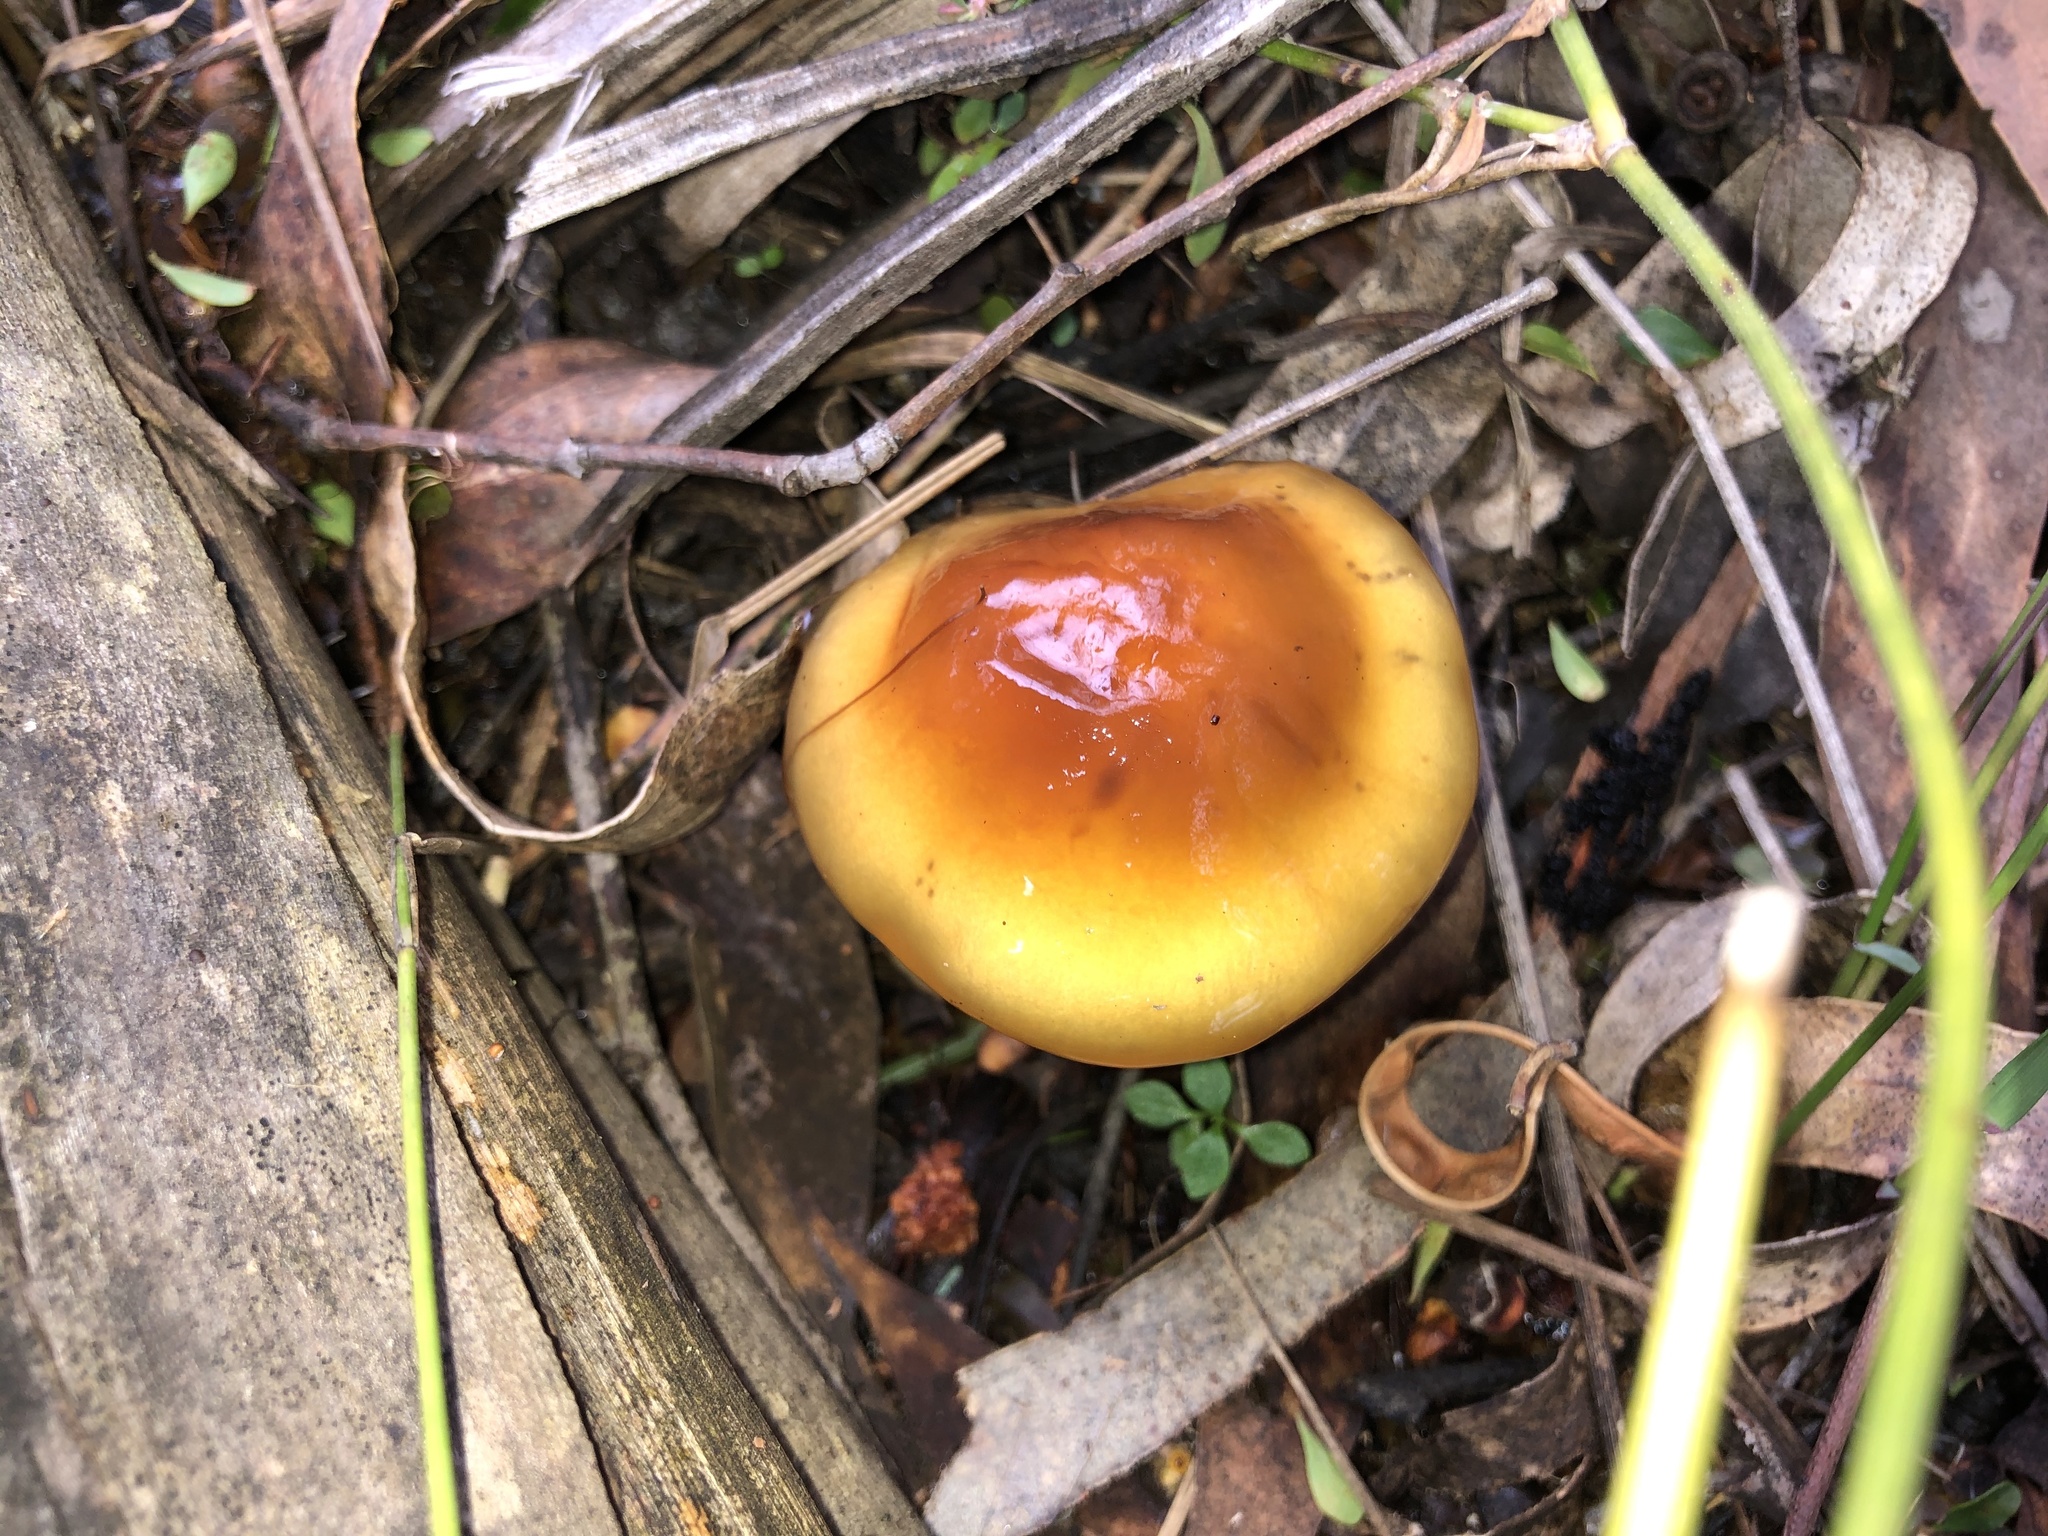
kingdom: Fungi
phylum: Basidiomycota
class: Agaricomycetes
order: Agaricales
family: Cortinariaceae
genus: Cortinarius
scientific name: Cortinarius sinapicolor
